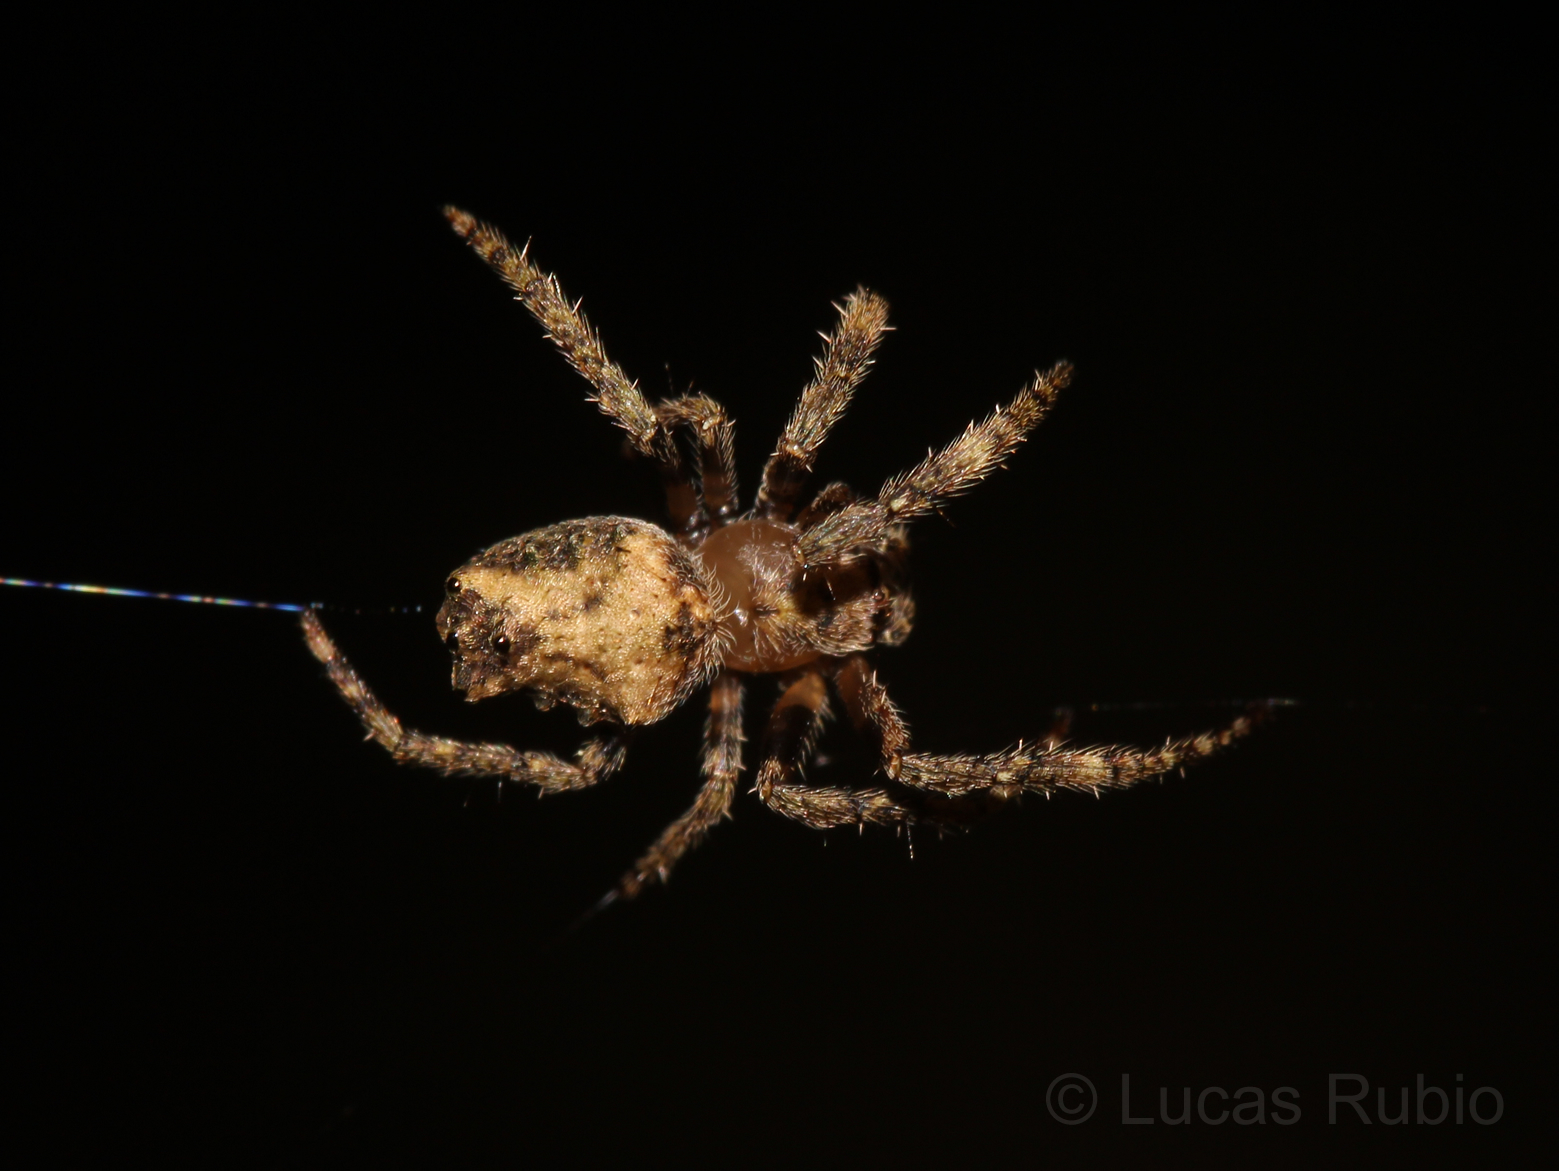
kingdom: Animalia
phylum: Arthropoda
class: Arachnida
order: Araneae
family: Araneidae
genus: Parawixia
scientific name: Parawixia velutina
